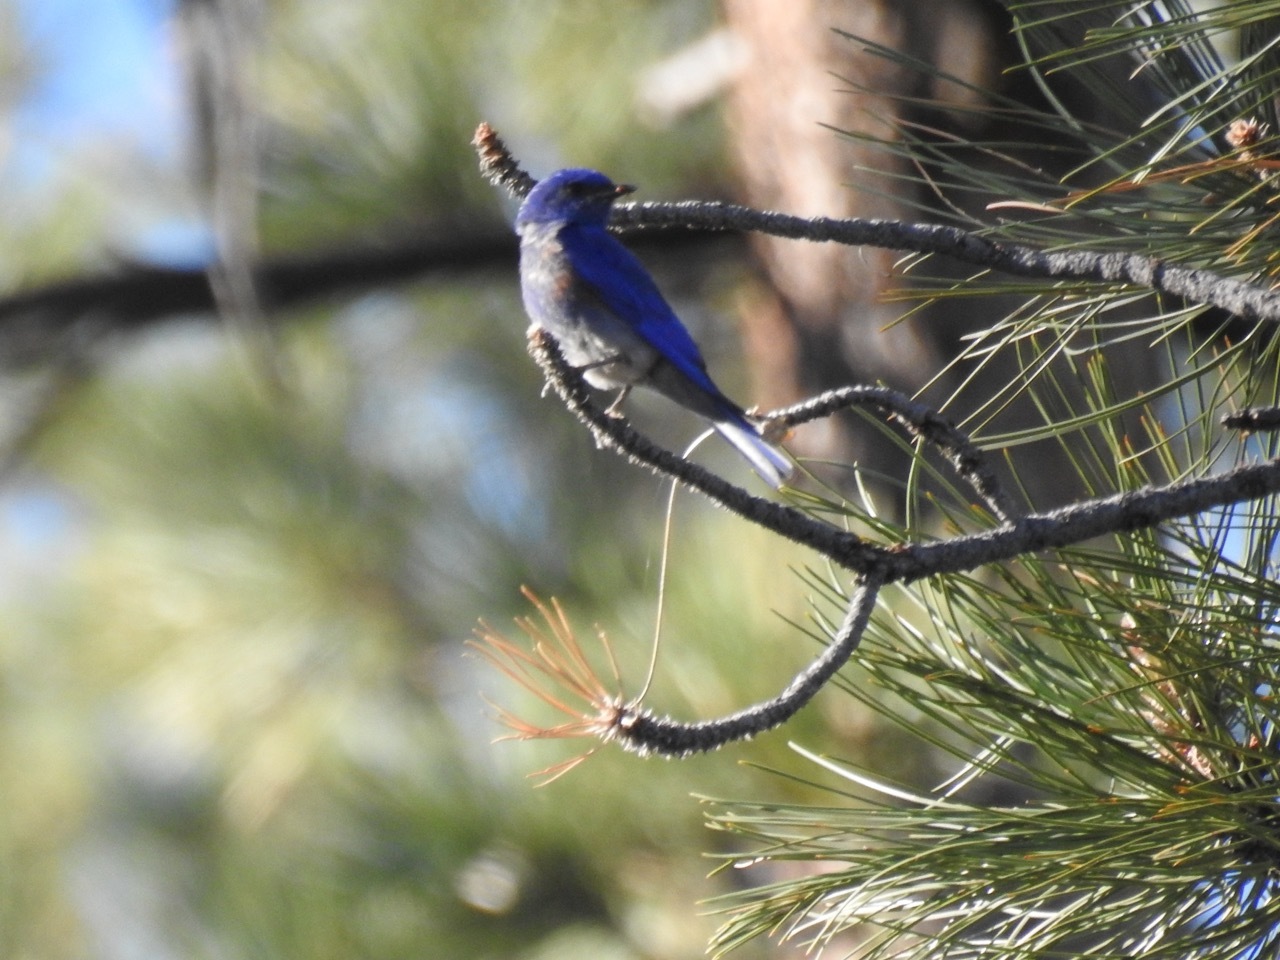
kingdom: Animalia
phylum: Chordata
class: Aves
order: Passeriformes
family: Turdidae
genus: Sialia
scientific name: Sialia mexicana
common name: Western bluebird
